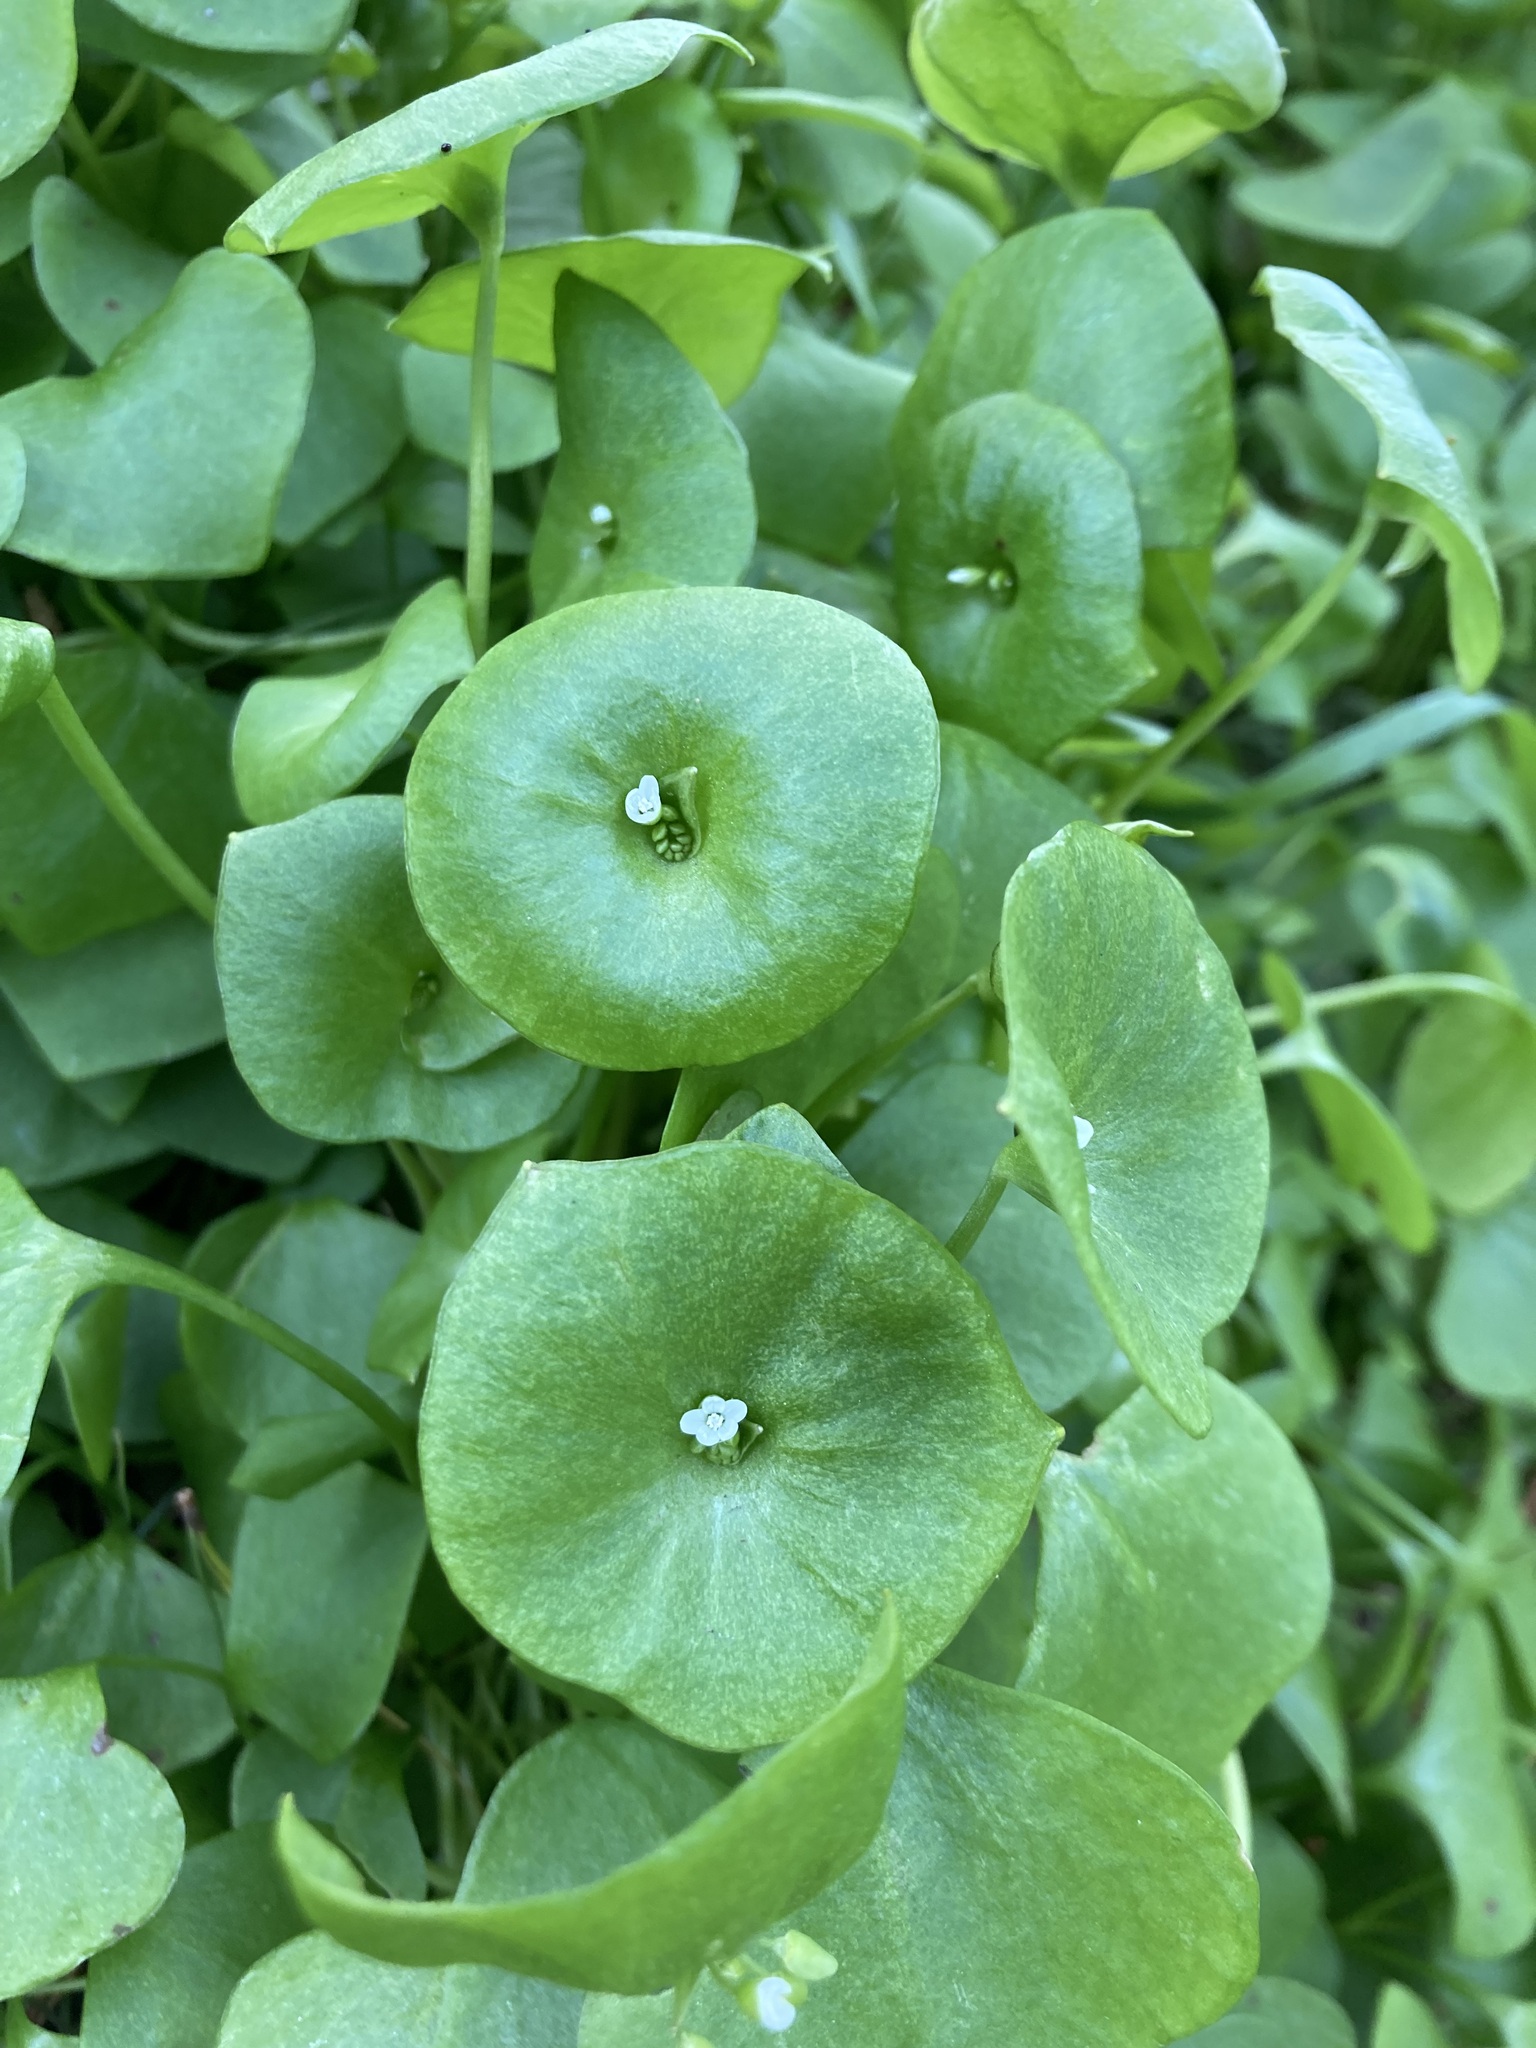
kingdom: Plantae
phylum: Tracheophyta
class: Magnoliopsida
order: Caryophyllales
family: Montiaceae
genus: Claytonia
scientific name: Claytonia perfoliata
